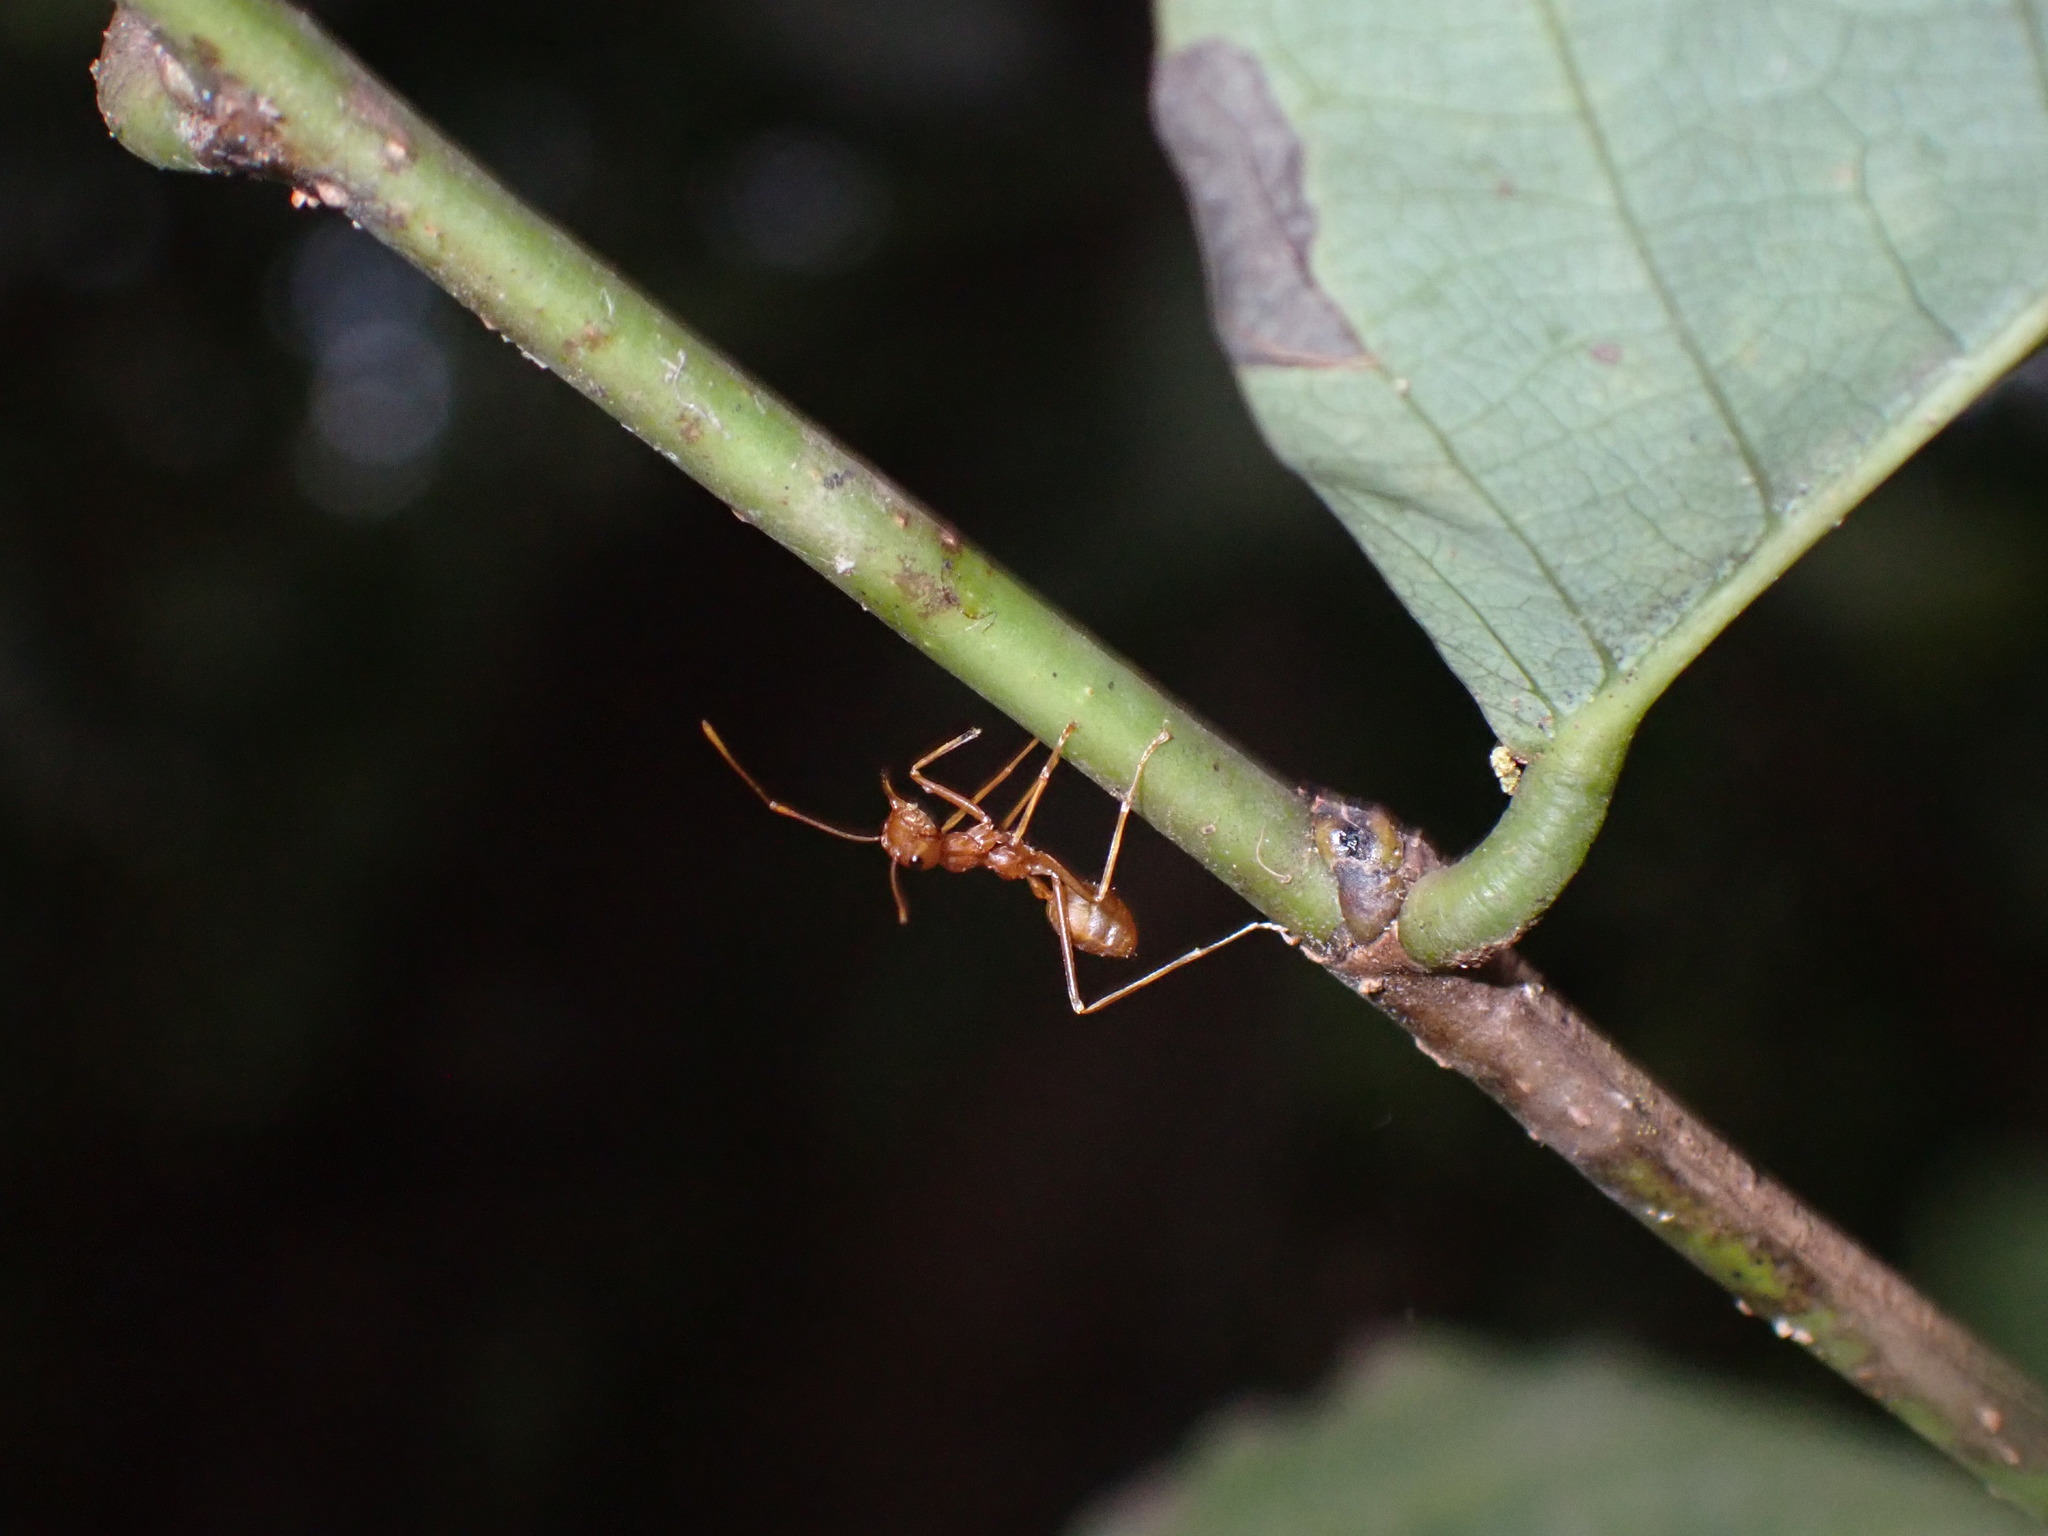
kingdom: Animalia
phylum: Arthropoda
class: Insecta
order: Hymenoptera
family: Formicidae
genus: Oecophylla
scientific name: Oecophylla smaragdina
